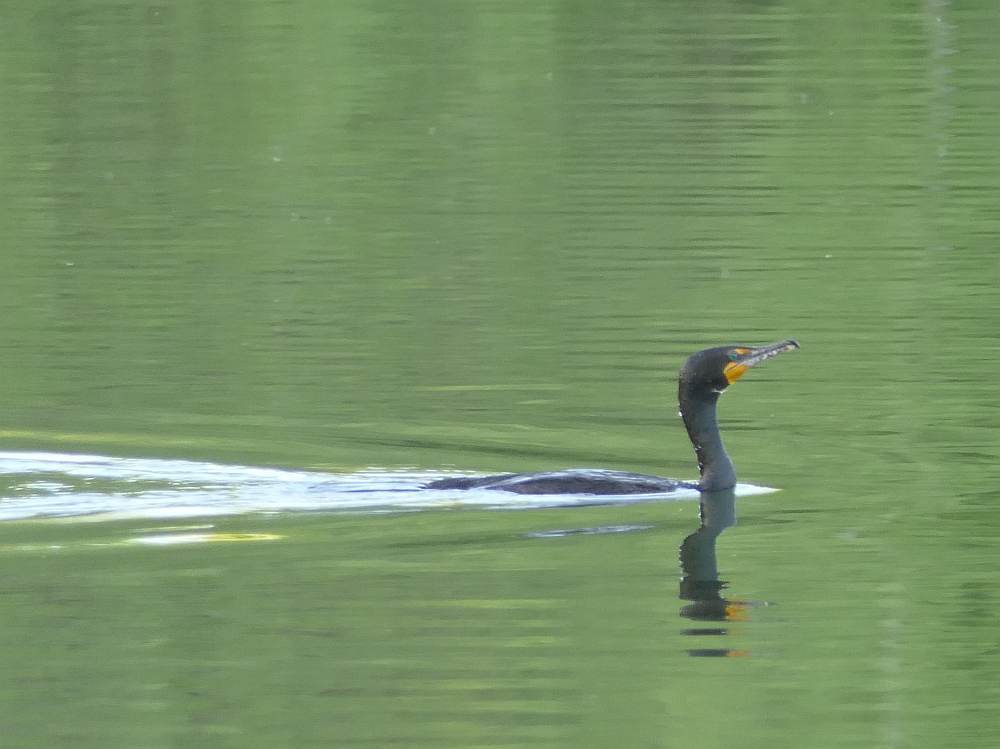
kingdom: Animalia
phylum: Chordata
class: Aves
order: Suliformes
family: Phalacrocoracidae
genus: Phalacrocorax
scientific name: Phalacrocorax auritus
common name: Double-crested cormorant
